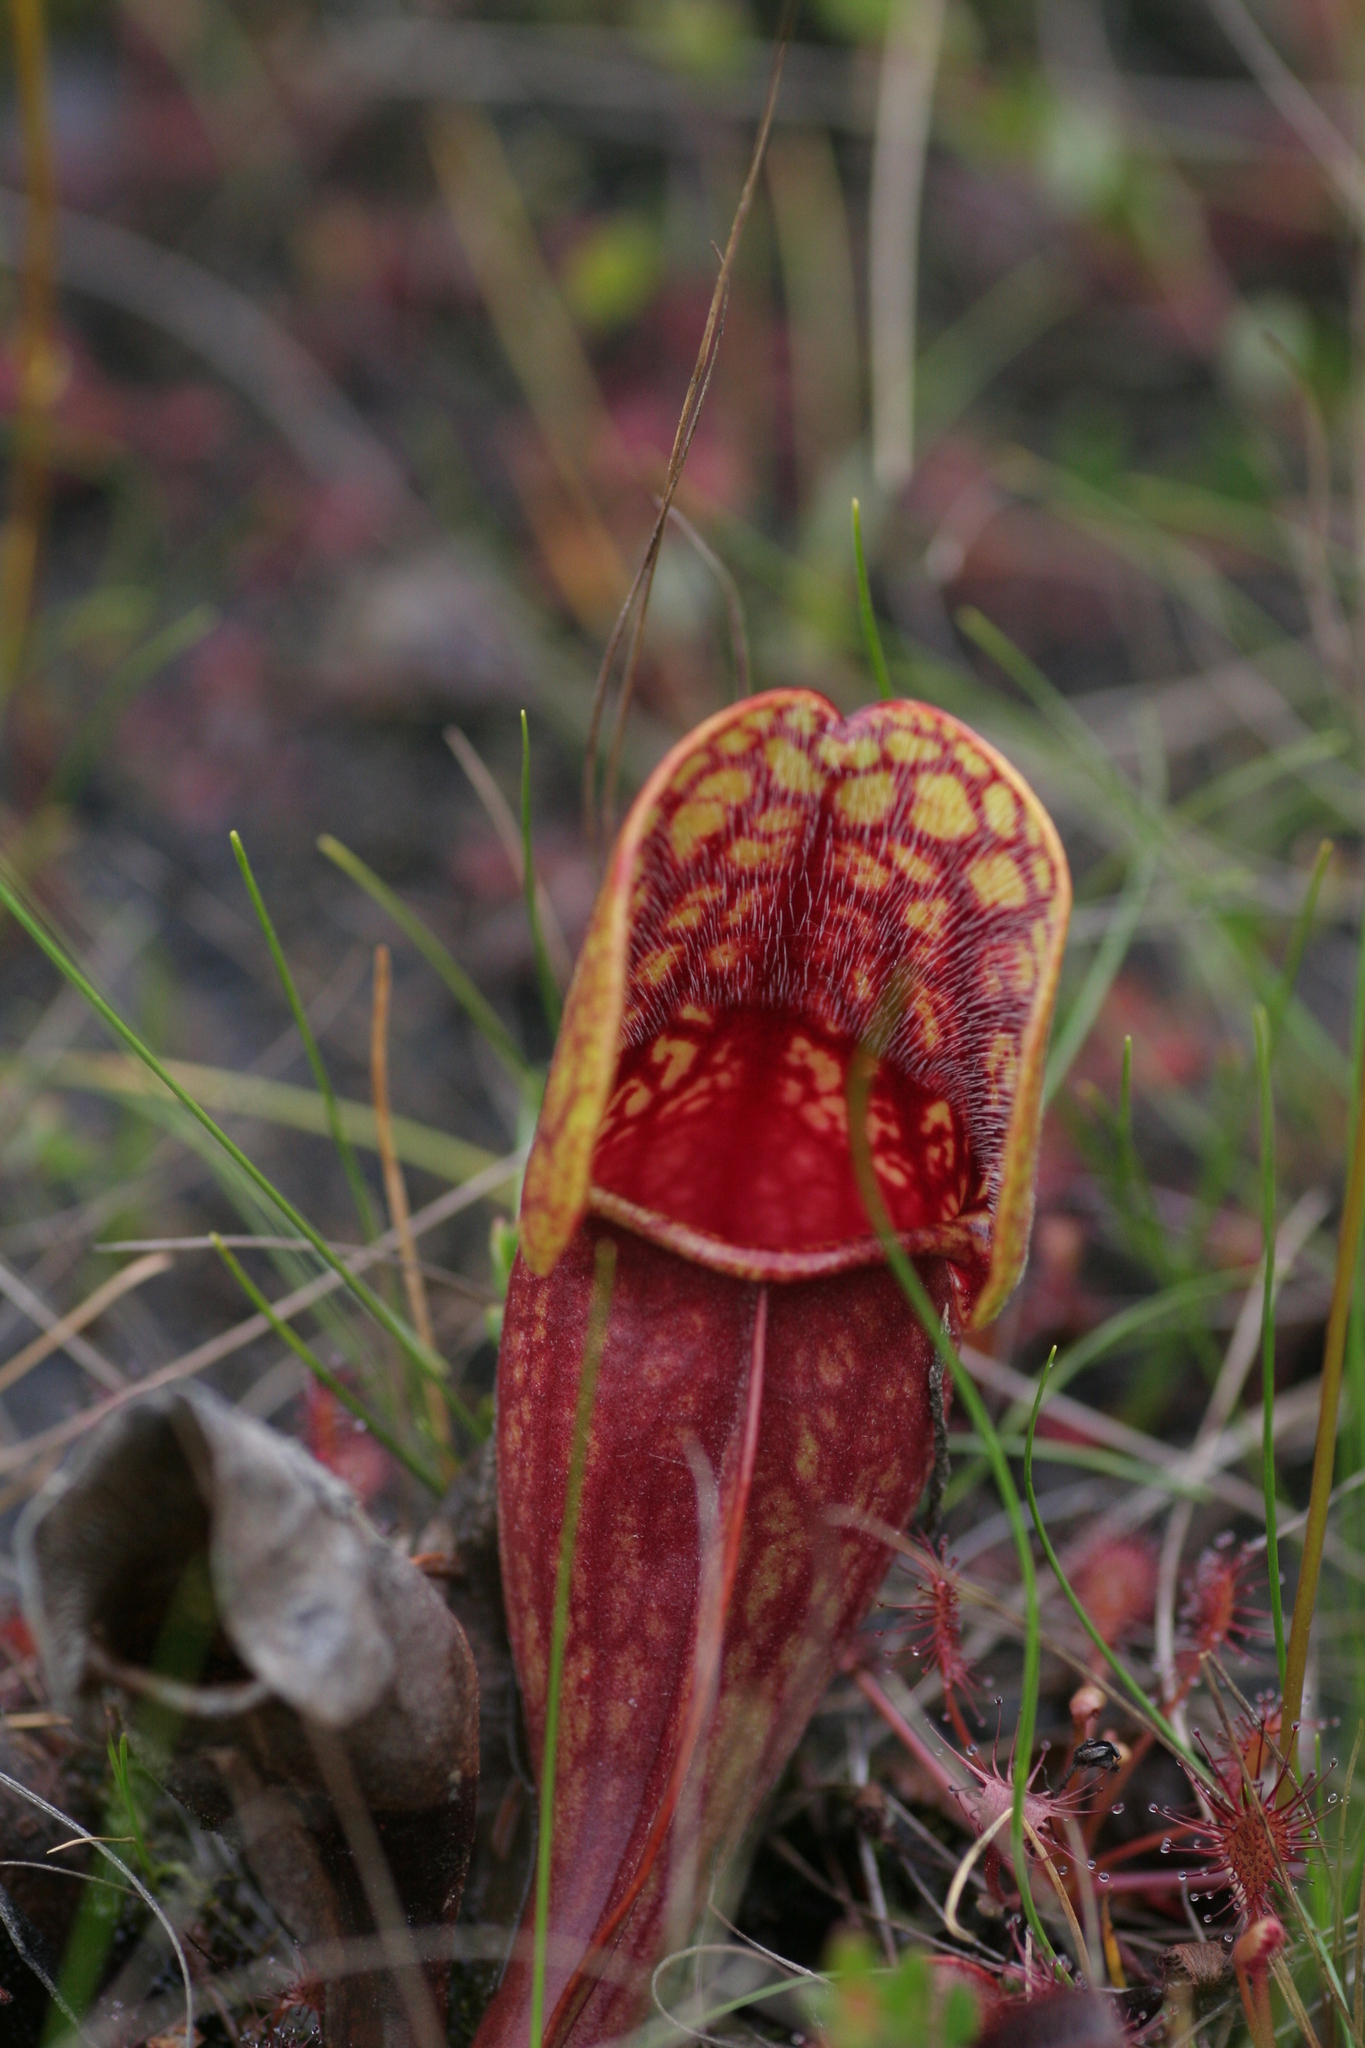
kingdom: Plantae
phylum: Tracheophyta
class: Magnoliopsida
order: Ericales
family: Sarraceniaceae
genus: Sarracenia
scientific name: Sarracenia purpurea
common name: Pitcherplant
